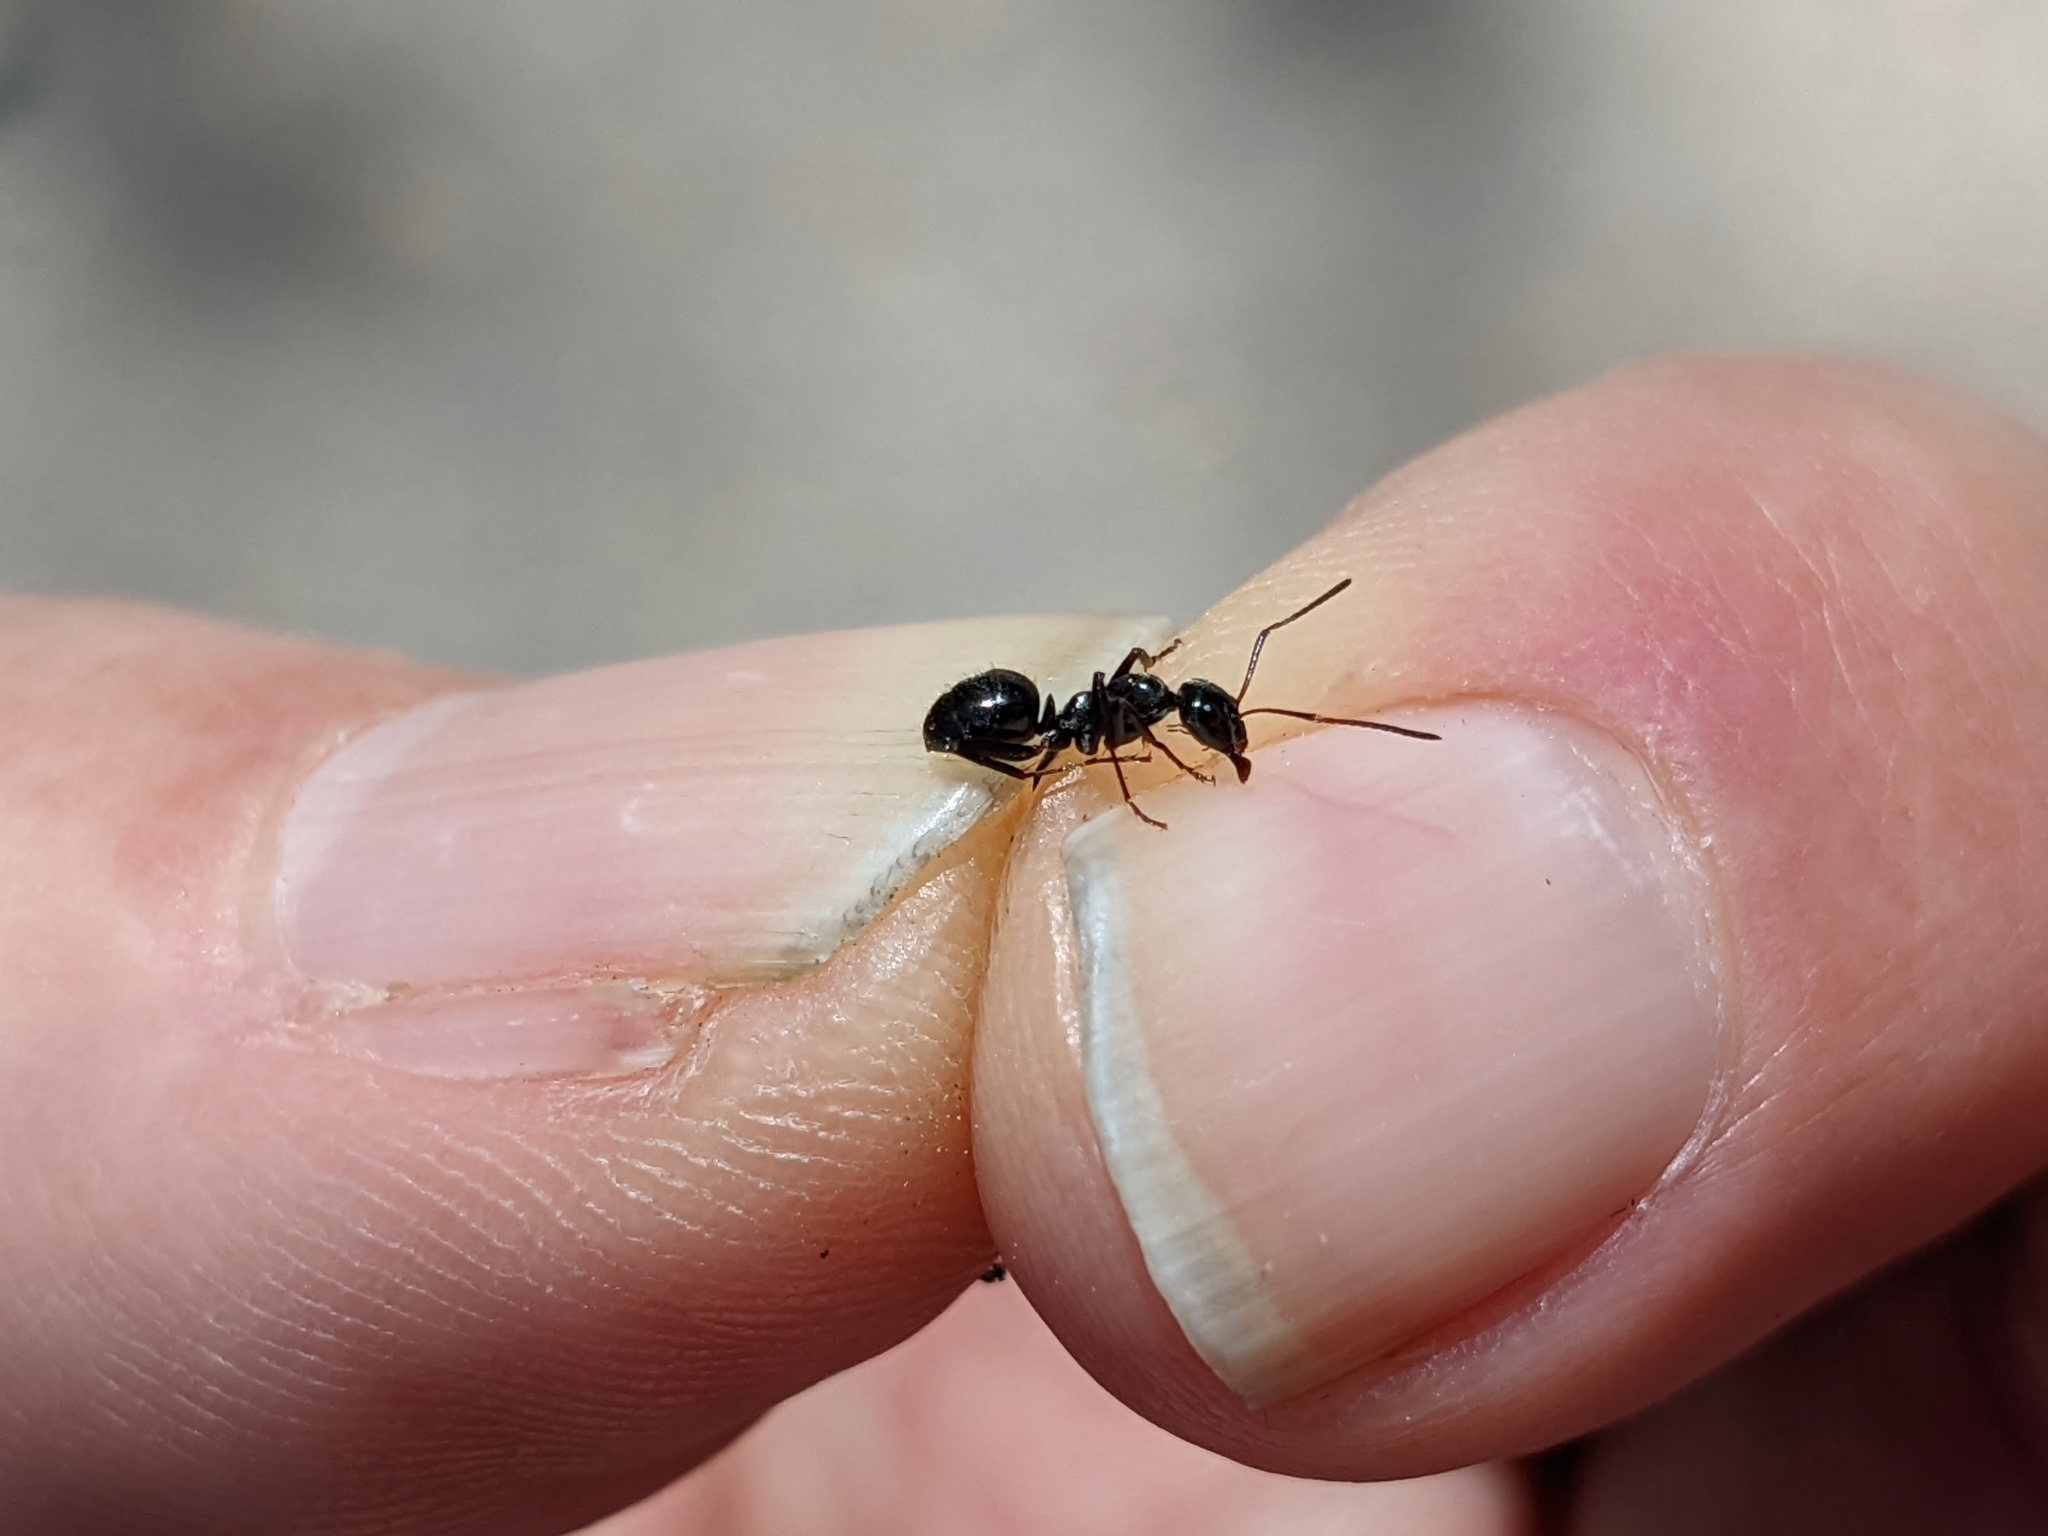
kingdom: Animalia
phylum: Arthropoda
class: Insecta
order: Hymenoptera
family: Formicidae
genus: Formica
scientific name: Formica gagates
